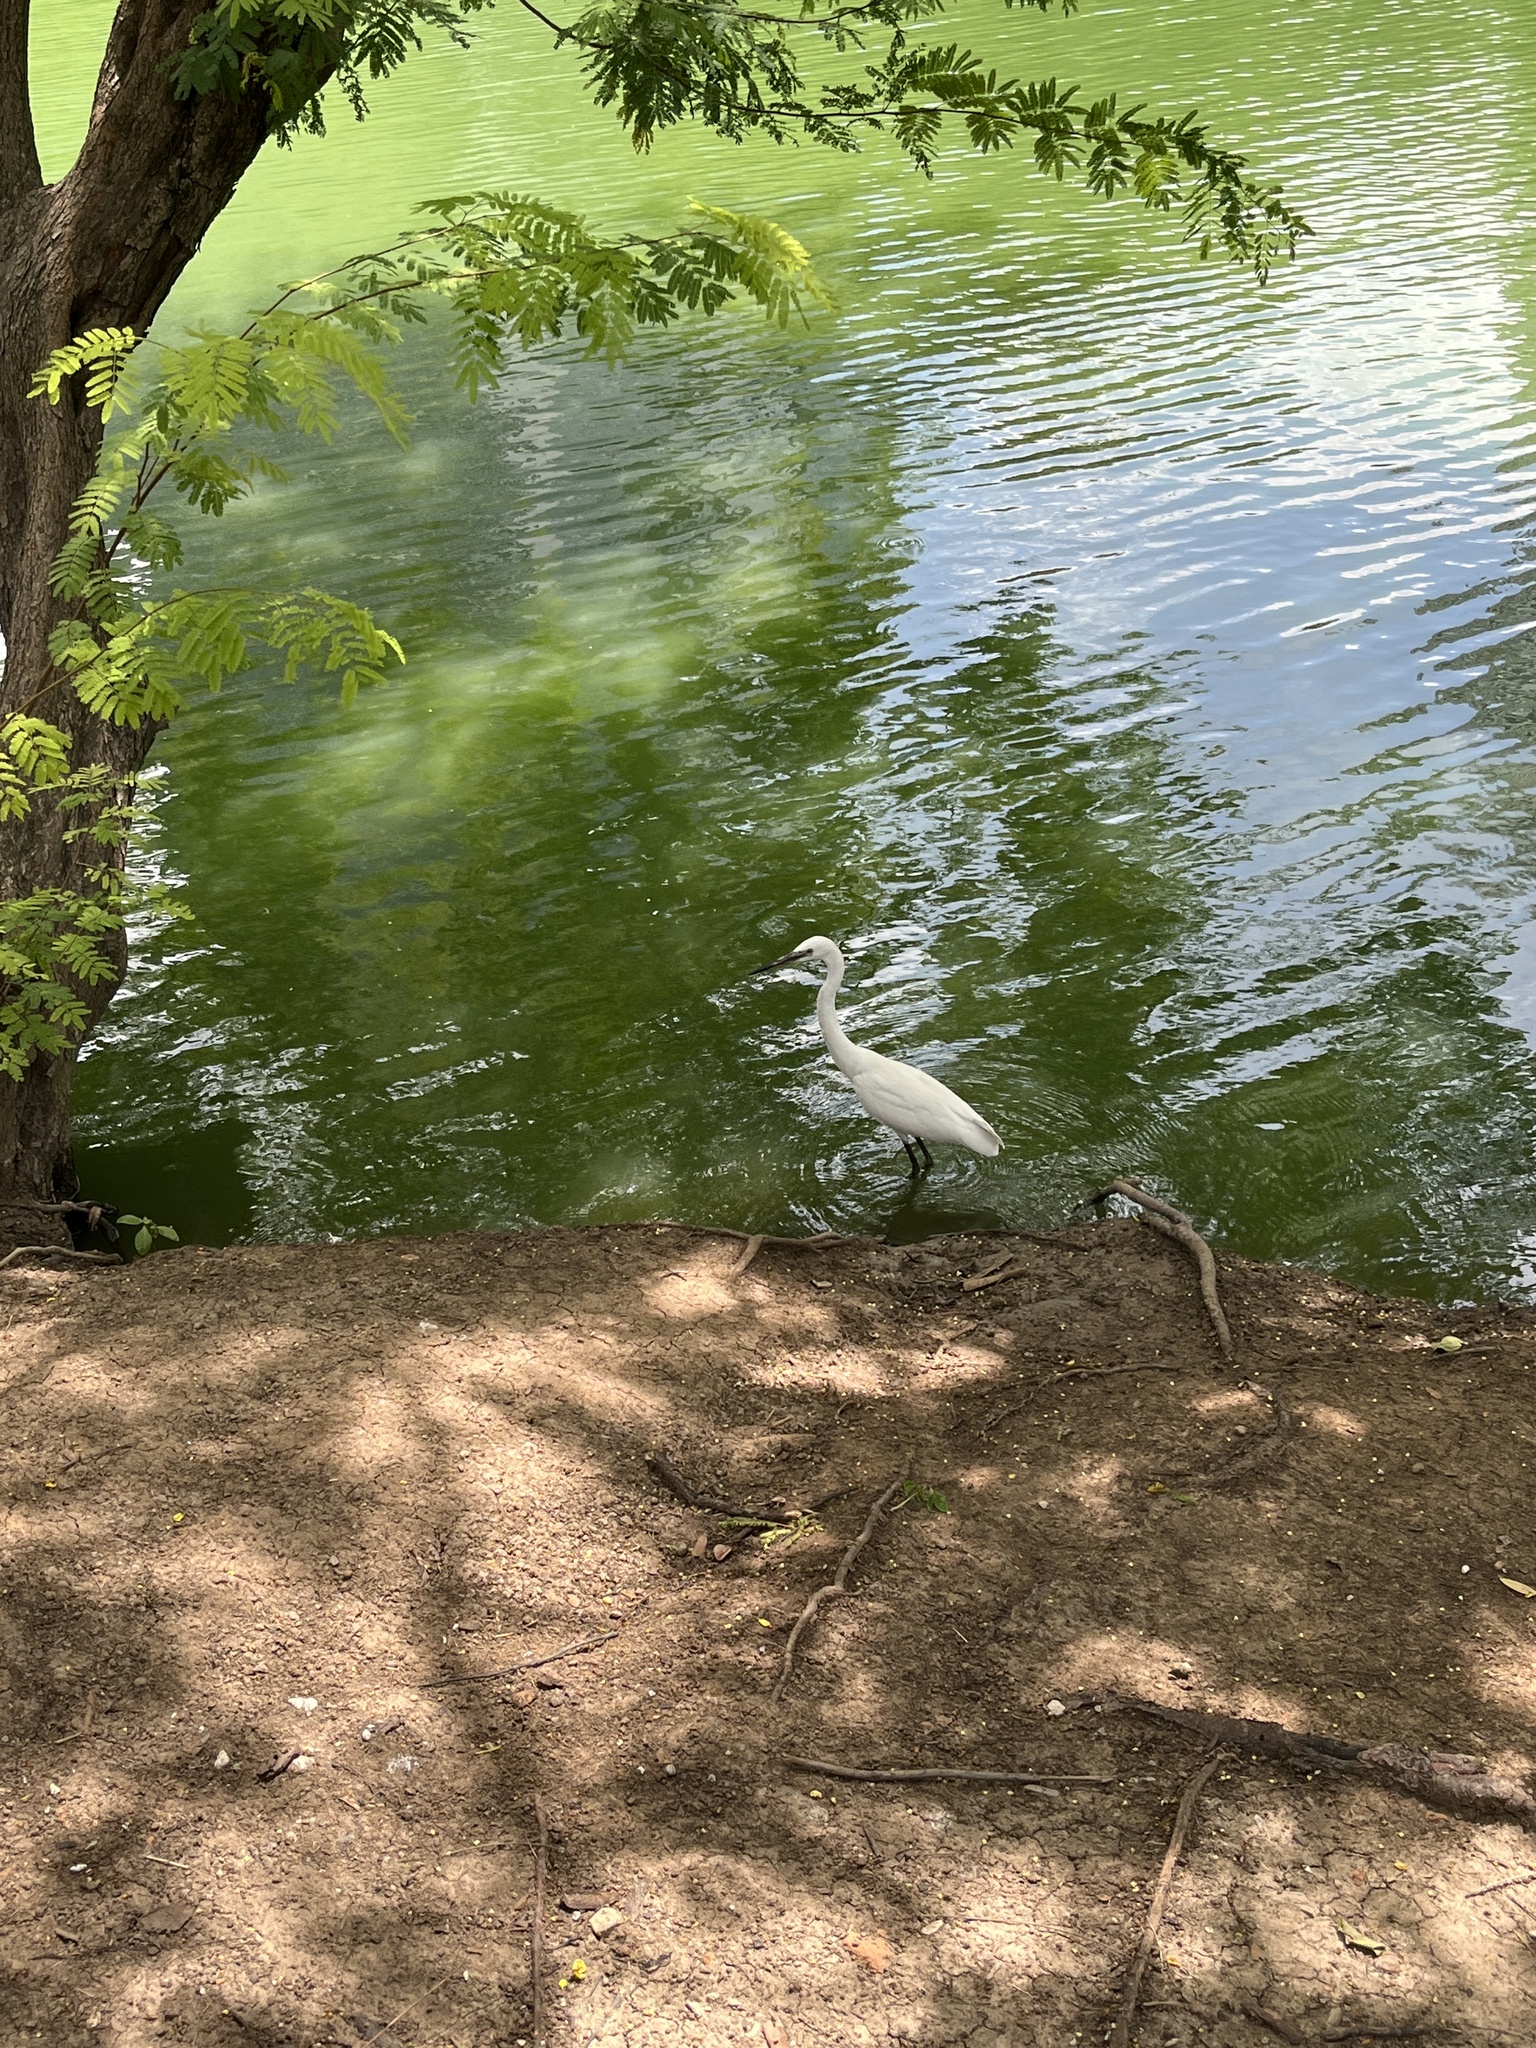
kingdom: Animalia
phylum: Chordata
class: Aves
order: Pelecaniformes
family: Ardeidae
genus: Egretta
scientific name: Egretta garzetta
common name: Little egret
